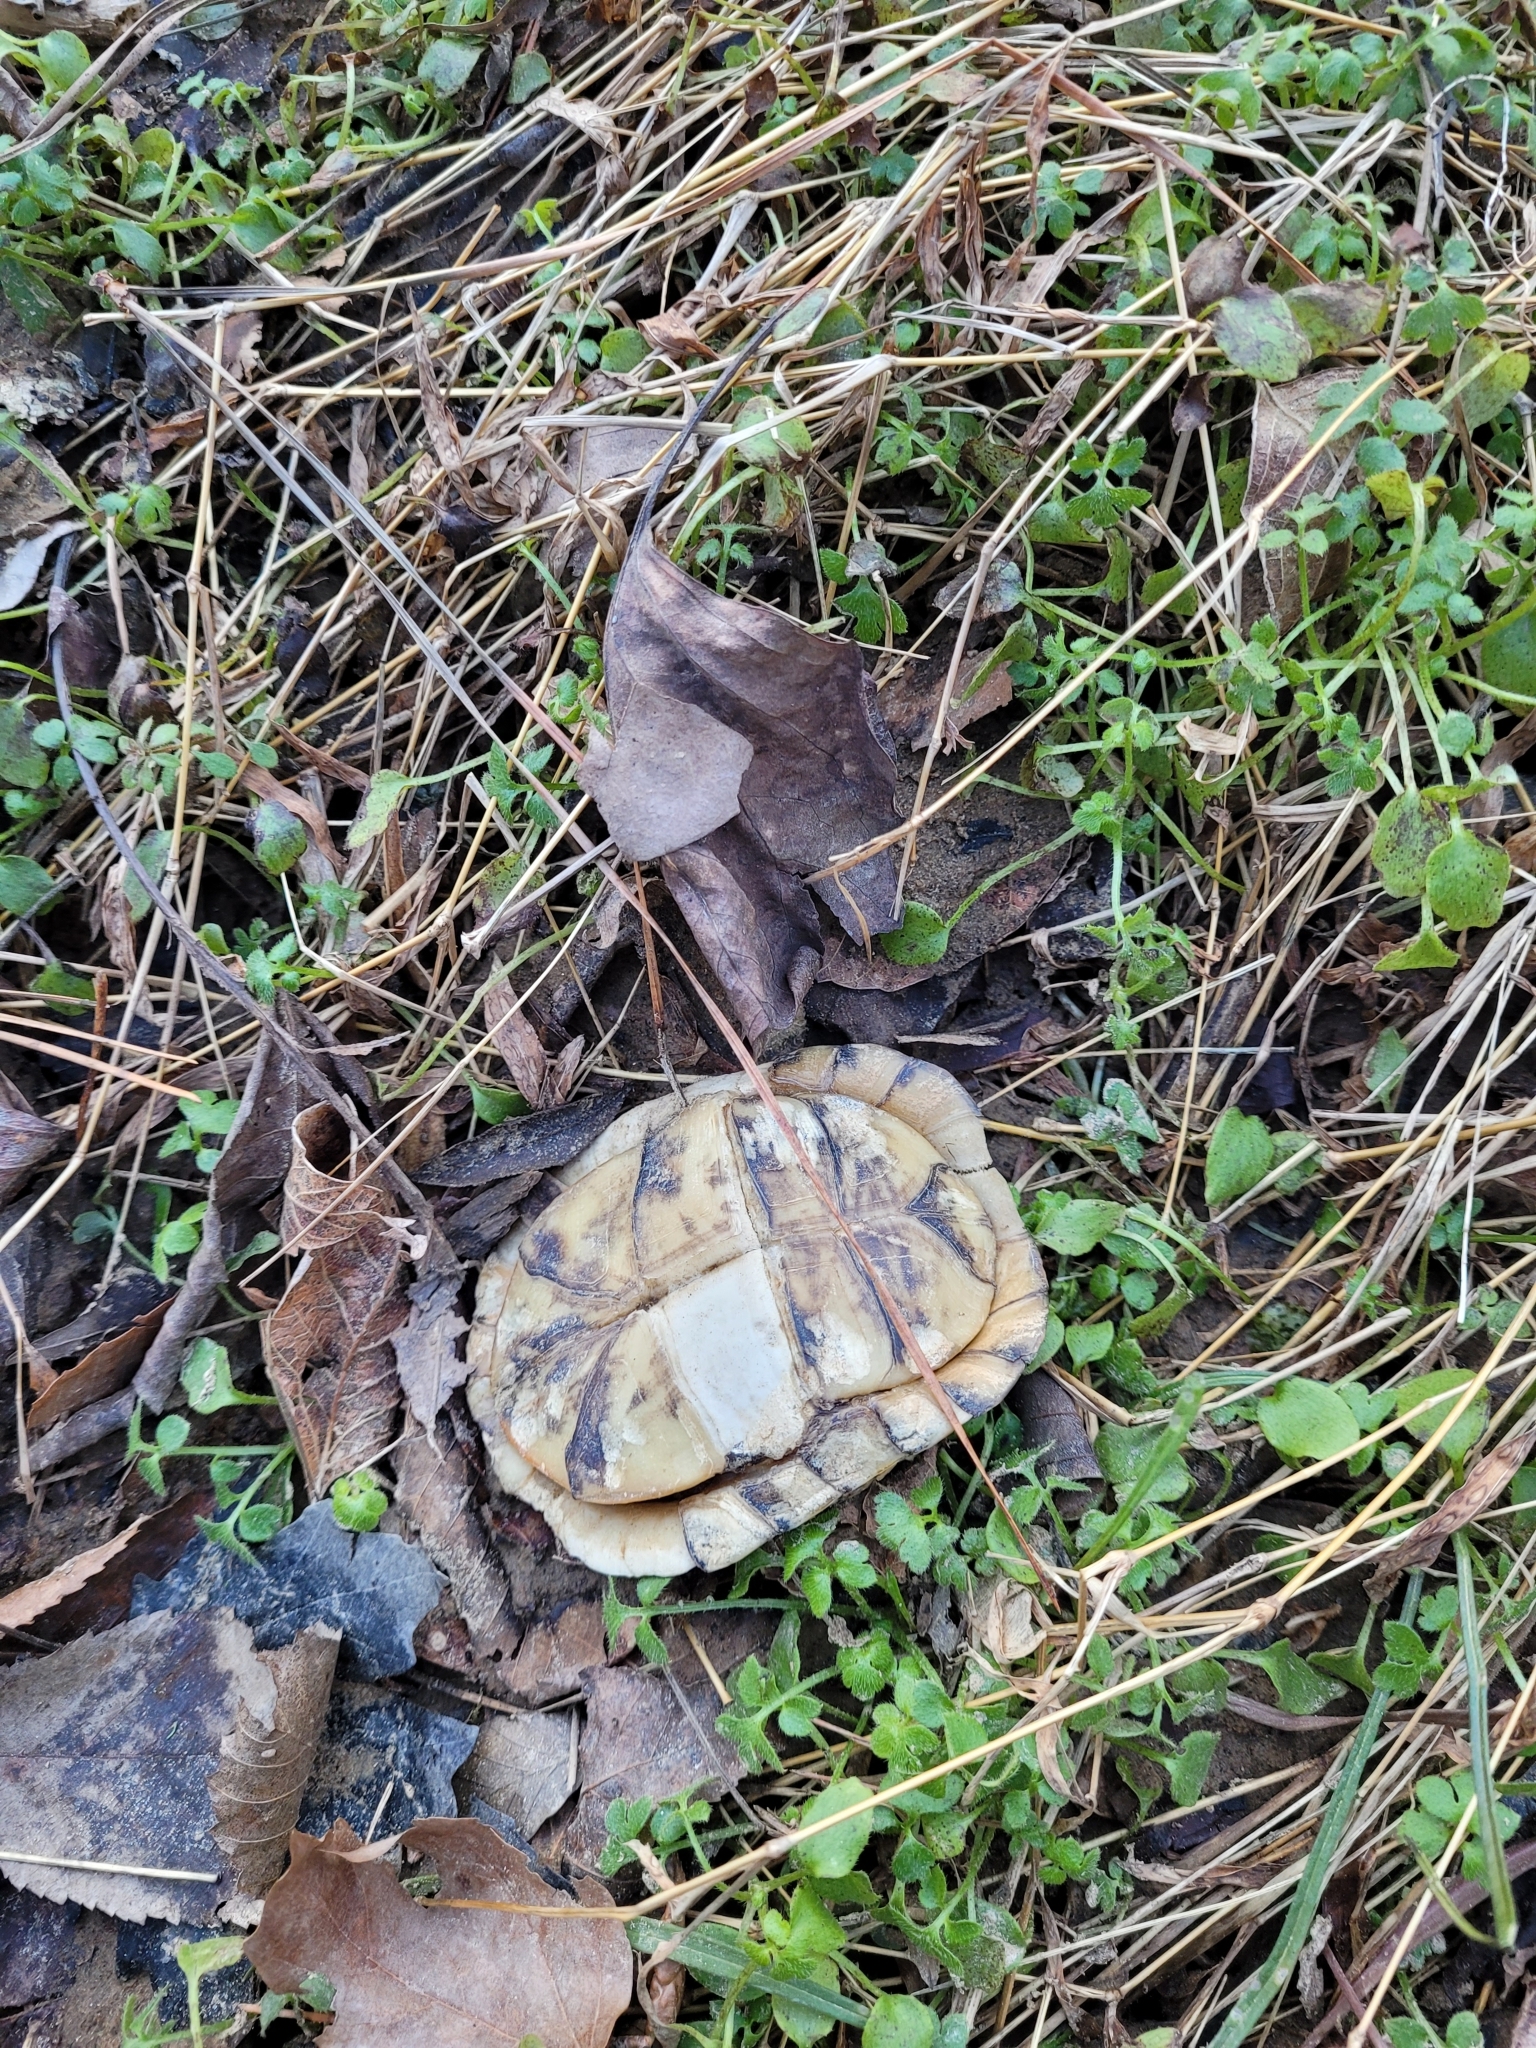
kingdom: Animalia
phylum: Chordata
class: Testudines
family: Emydidae
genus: Terrapene
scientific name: Terrapene carolina
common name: Common box turtle
